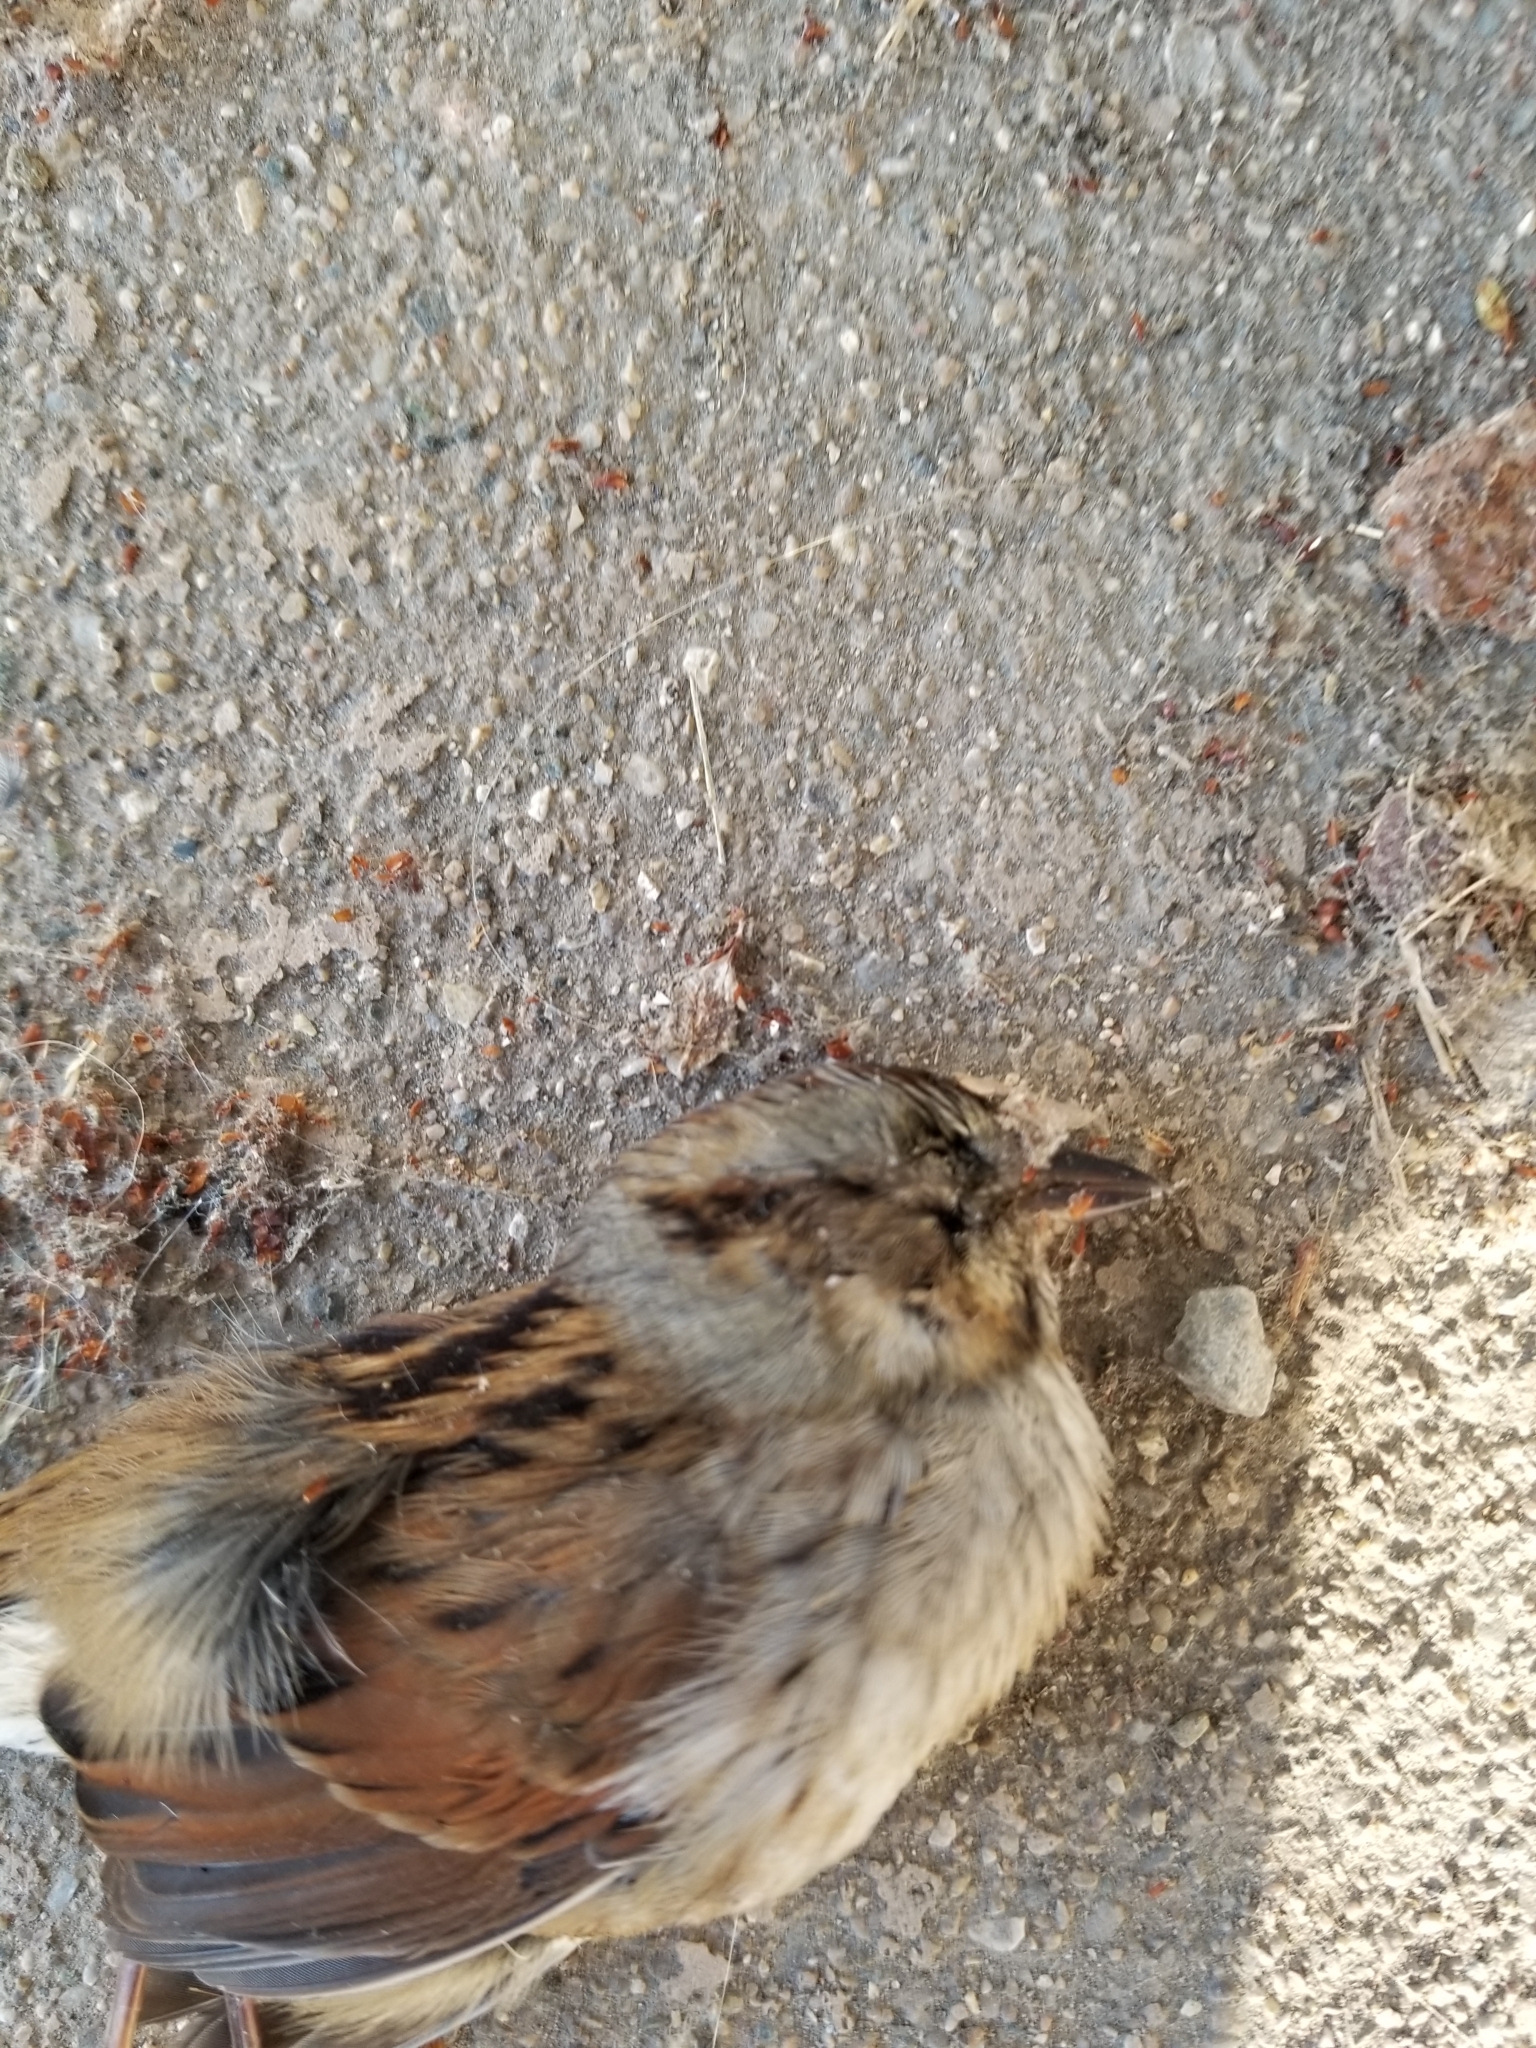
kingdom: Animalia
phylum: Chordata
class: Aves
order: Passeriformes
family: Passerellidae
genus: Melospiza
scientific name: Melospiza georgiana
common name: Swamp sparrow
